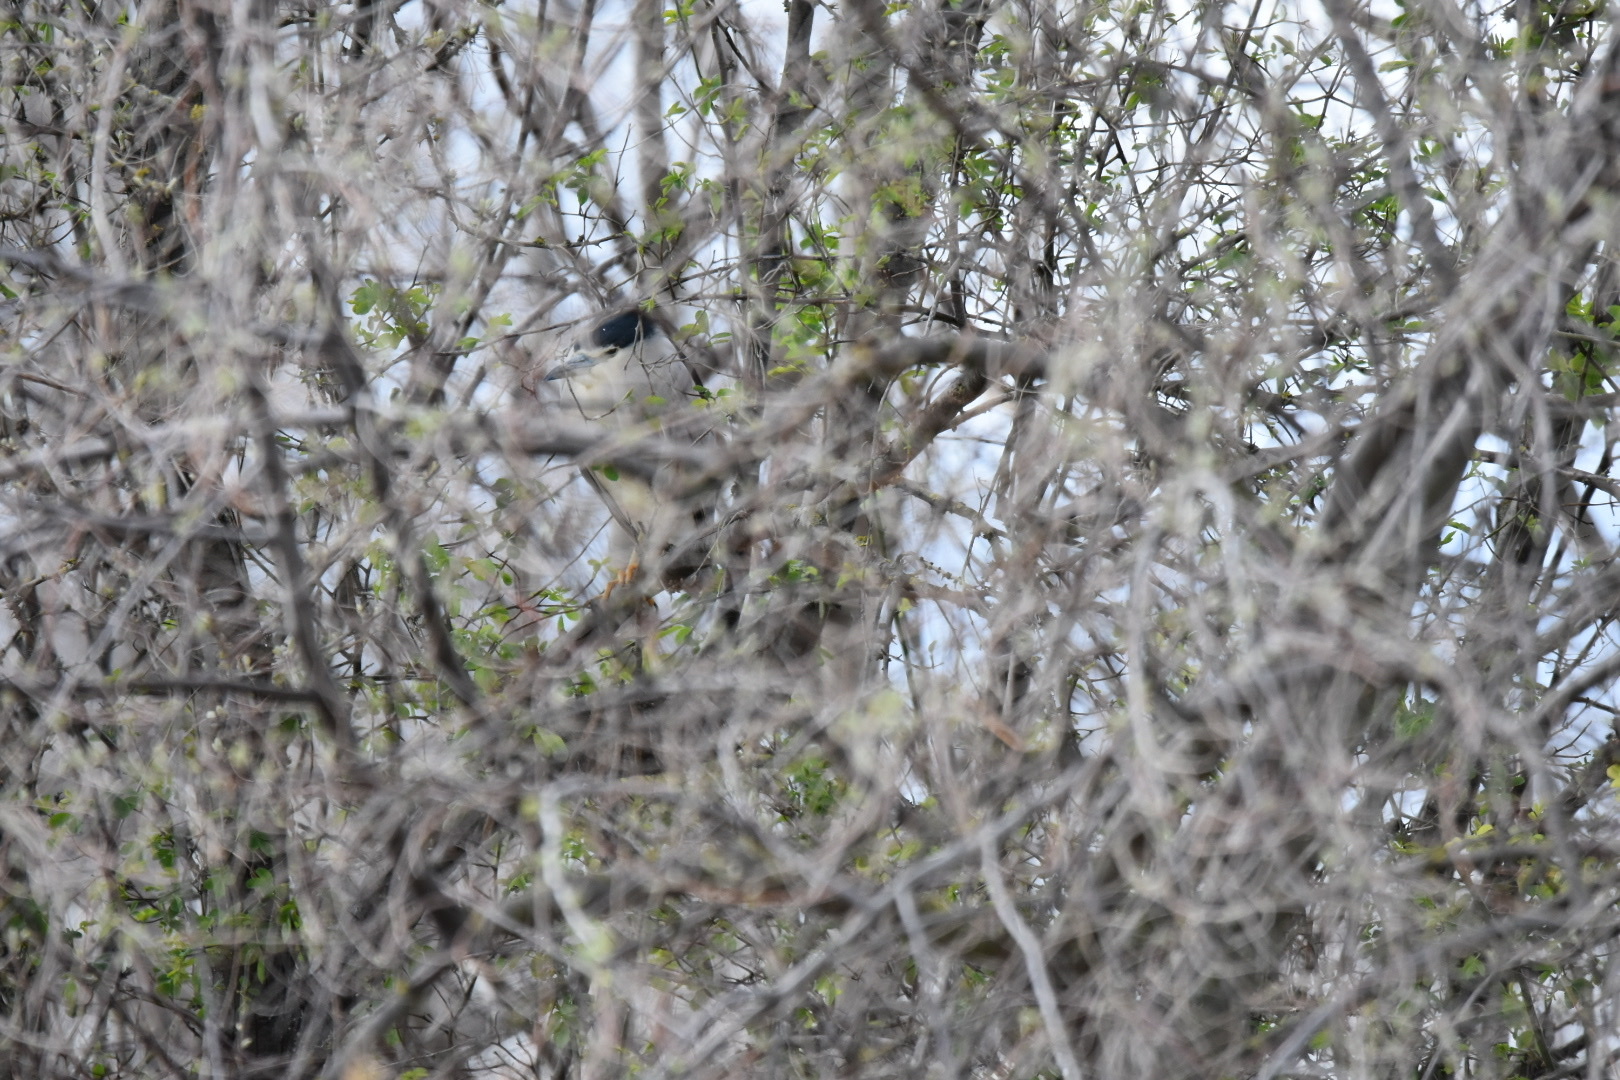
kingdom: Animalia
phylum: Chordata
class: Aves
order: Pelecaniformes
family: Ardeidae
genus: Nycticorax
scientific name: Nycticorax nycticorax
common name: Black-crowned night heron
